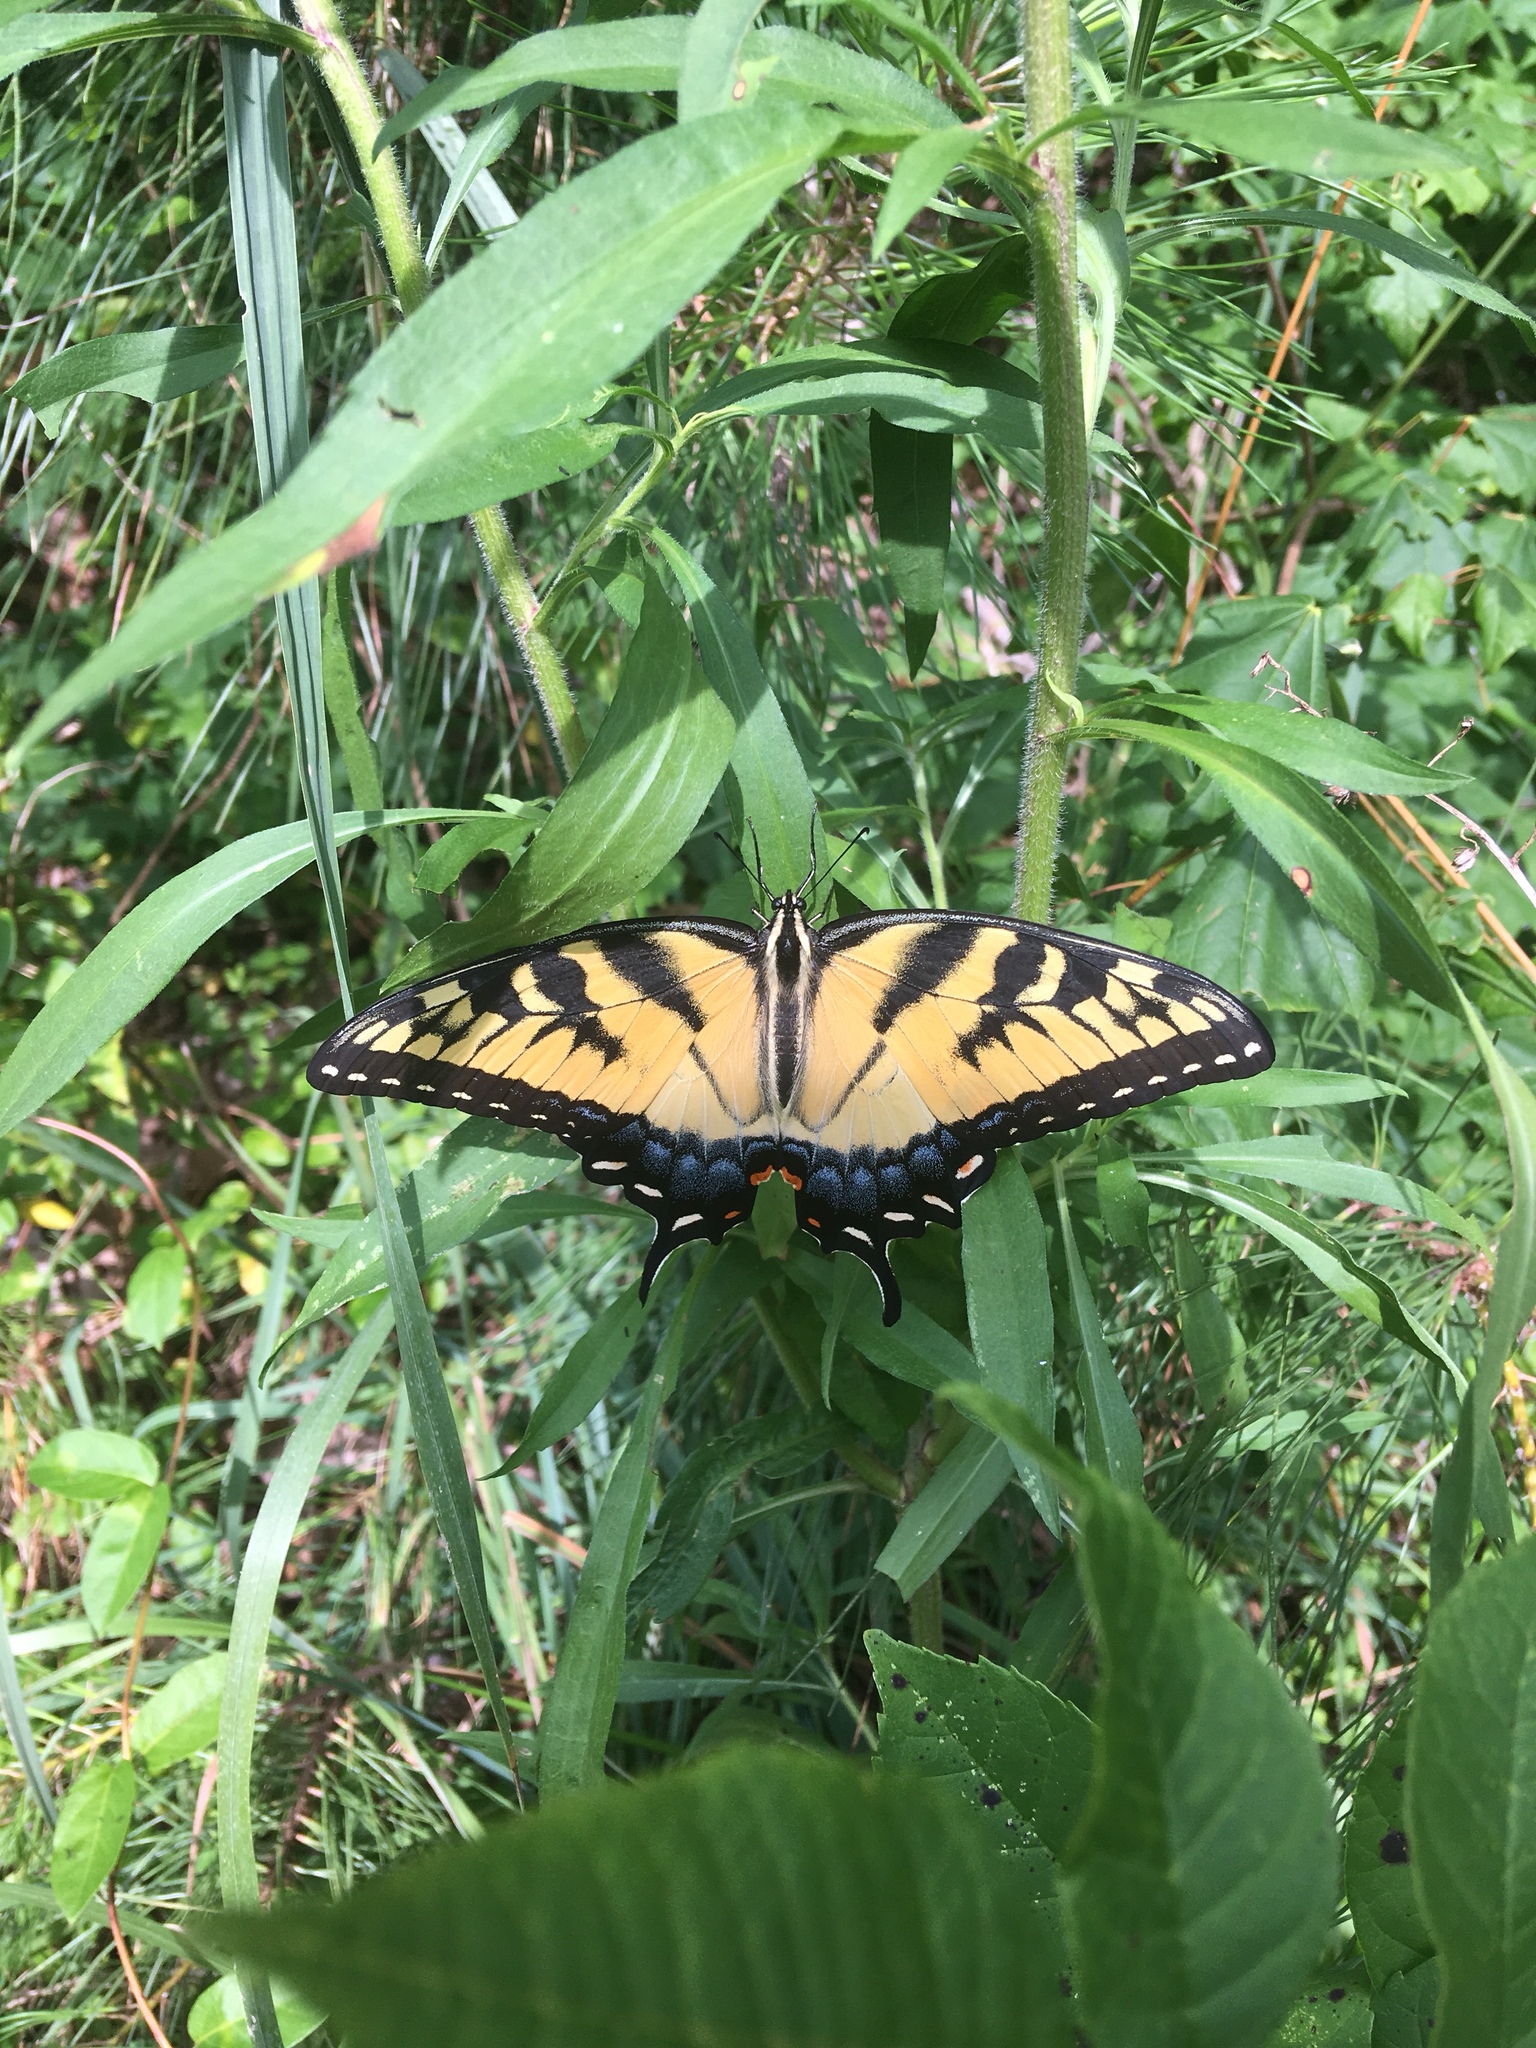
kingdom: Animalia
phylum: Arthropoda
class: Insecta
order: Lepidoptera
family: Papilionidae
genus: Papilio
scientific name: Papilio glaucus
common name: Tiger swallowtail
